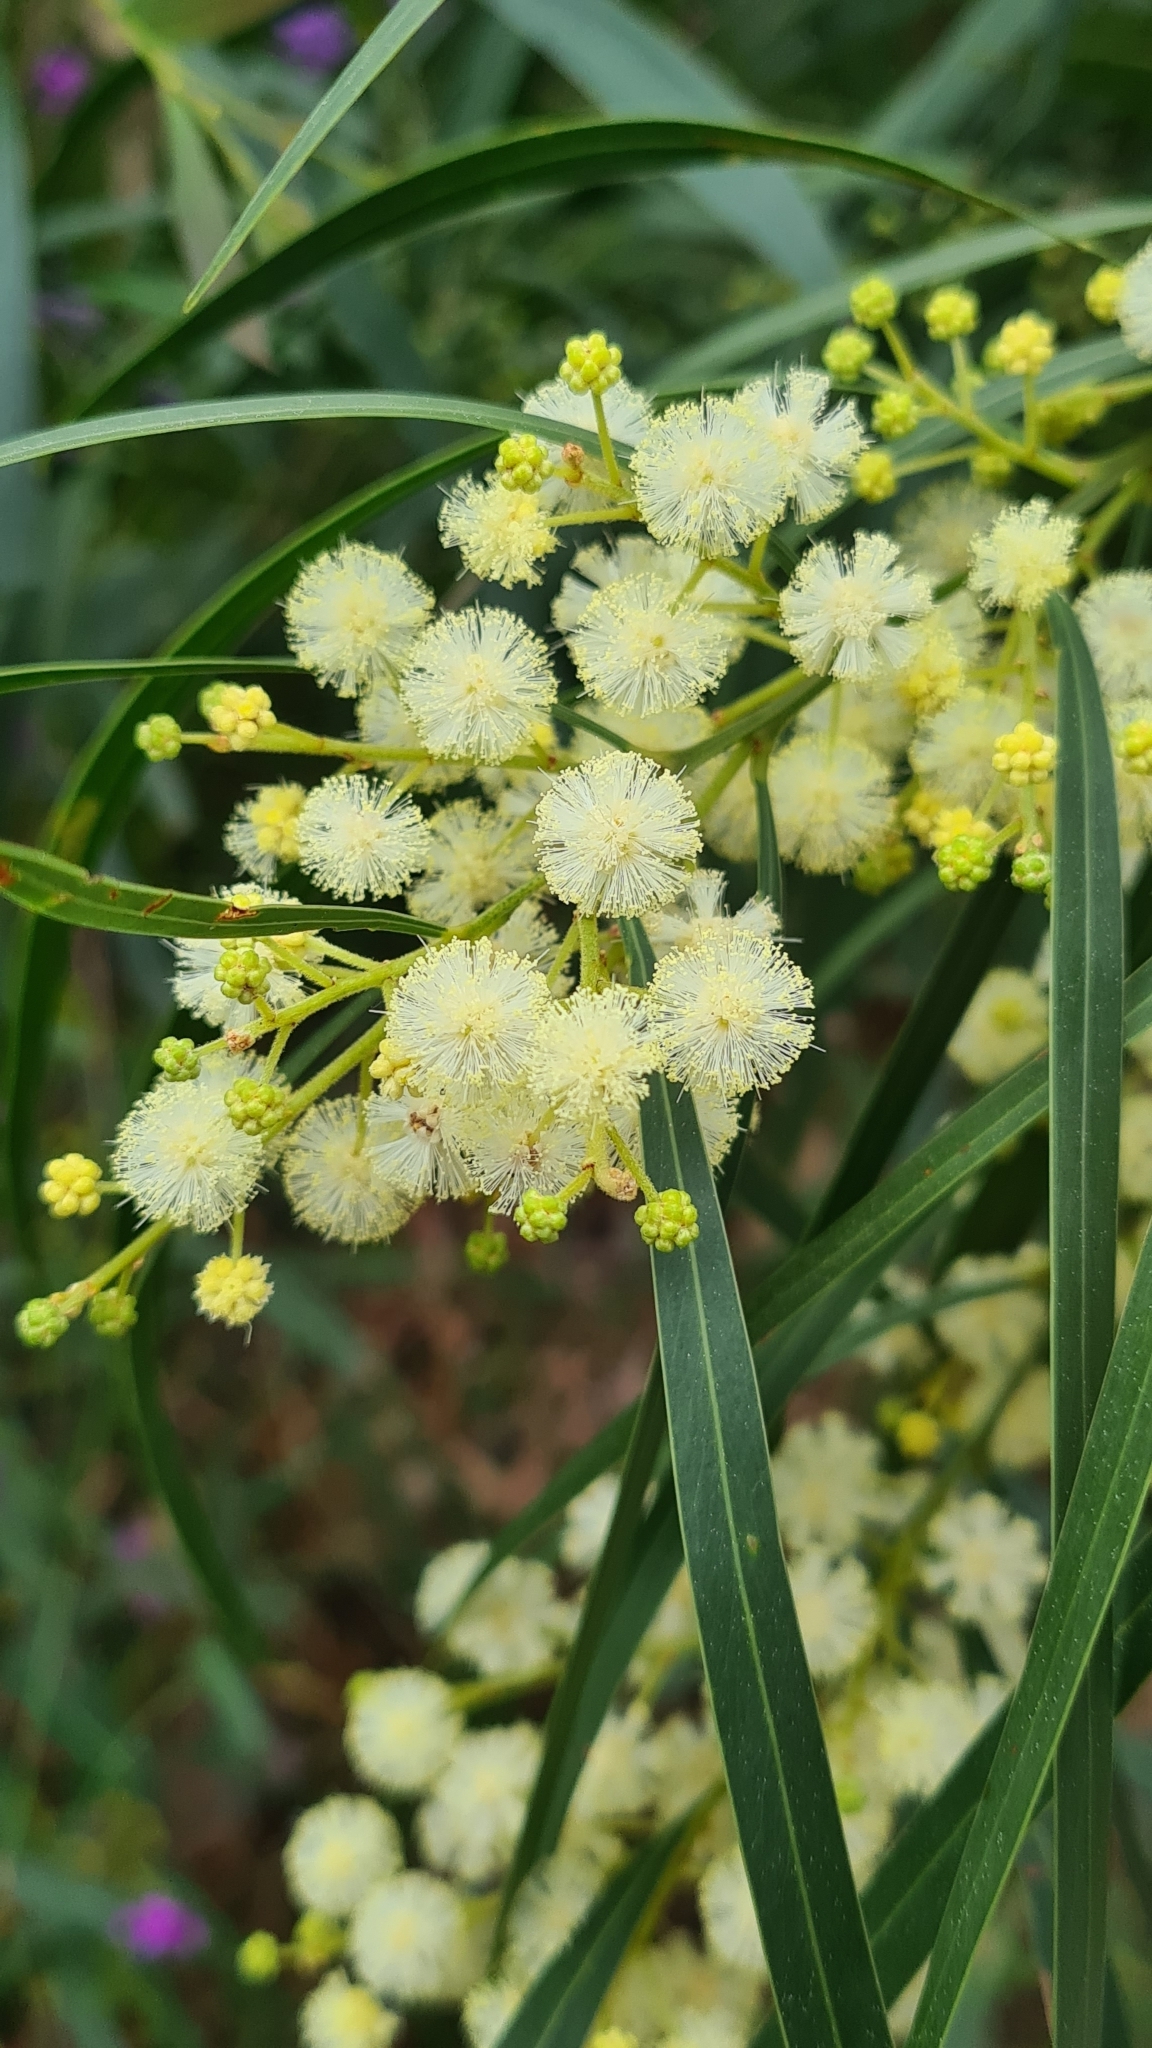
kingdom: Plantae
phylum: Tracheophyta
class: Magnoliopsida
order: Fabales
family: Fabaceae
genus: Acacia
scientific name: Acacia mabellae
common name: Black wattle
